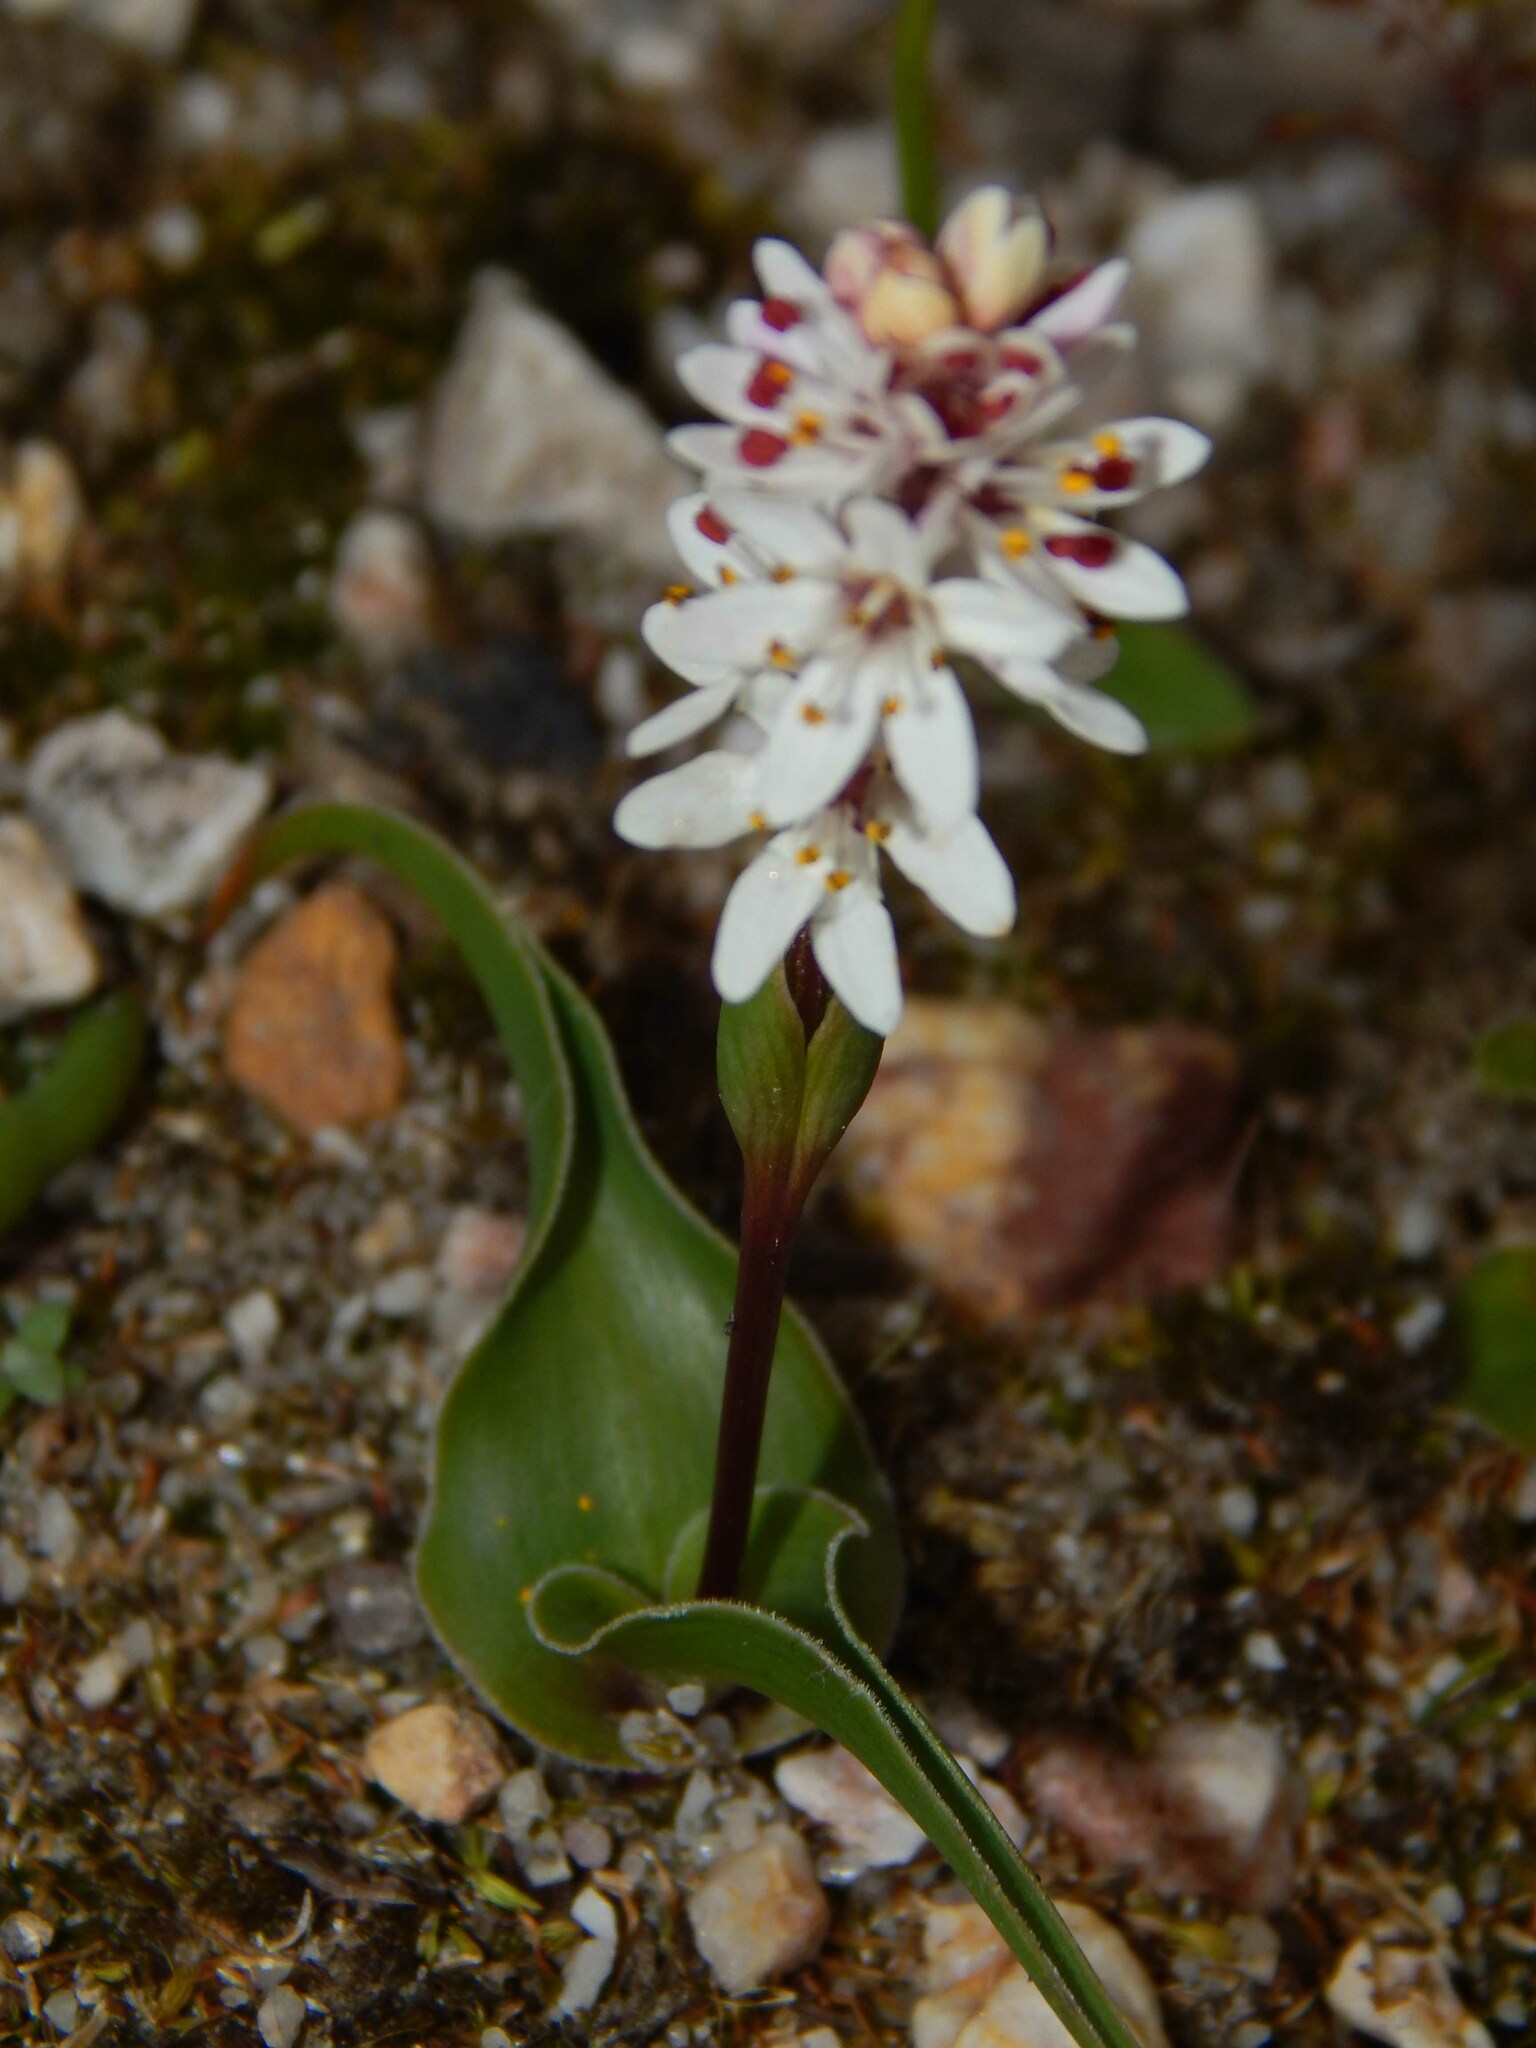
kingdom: Plantae
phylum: Tracheophyta
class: Liliopsida
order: Liliales
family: Colchicaceae
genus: Wurmbea
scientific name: Wurmbea punctata
